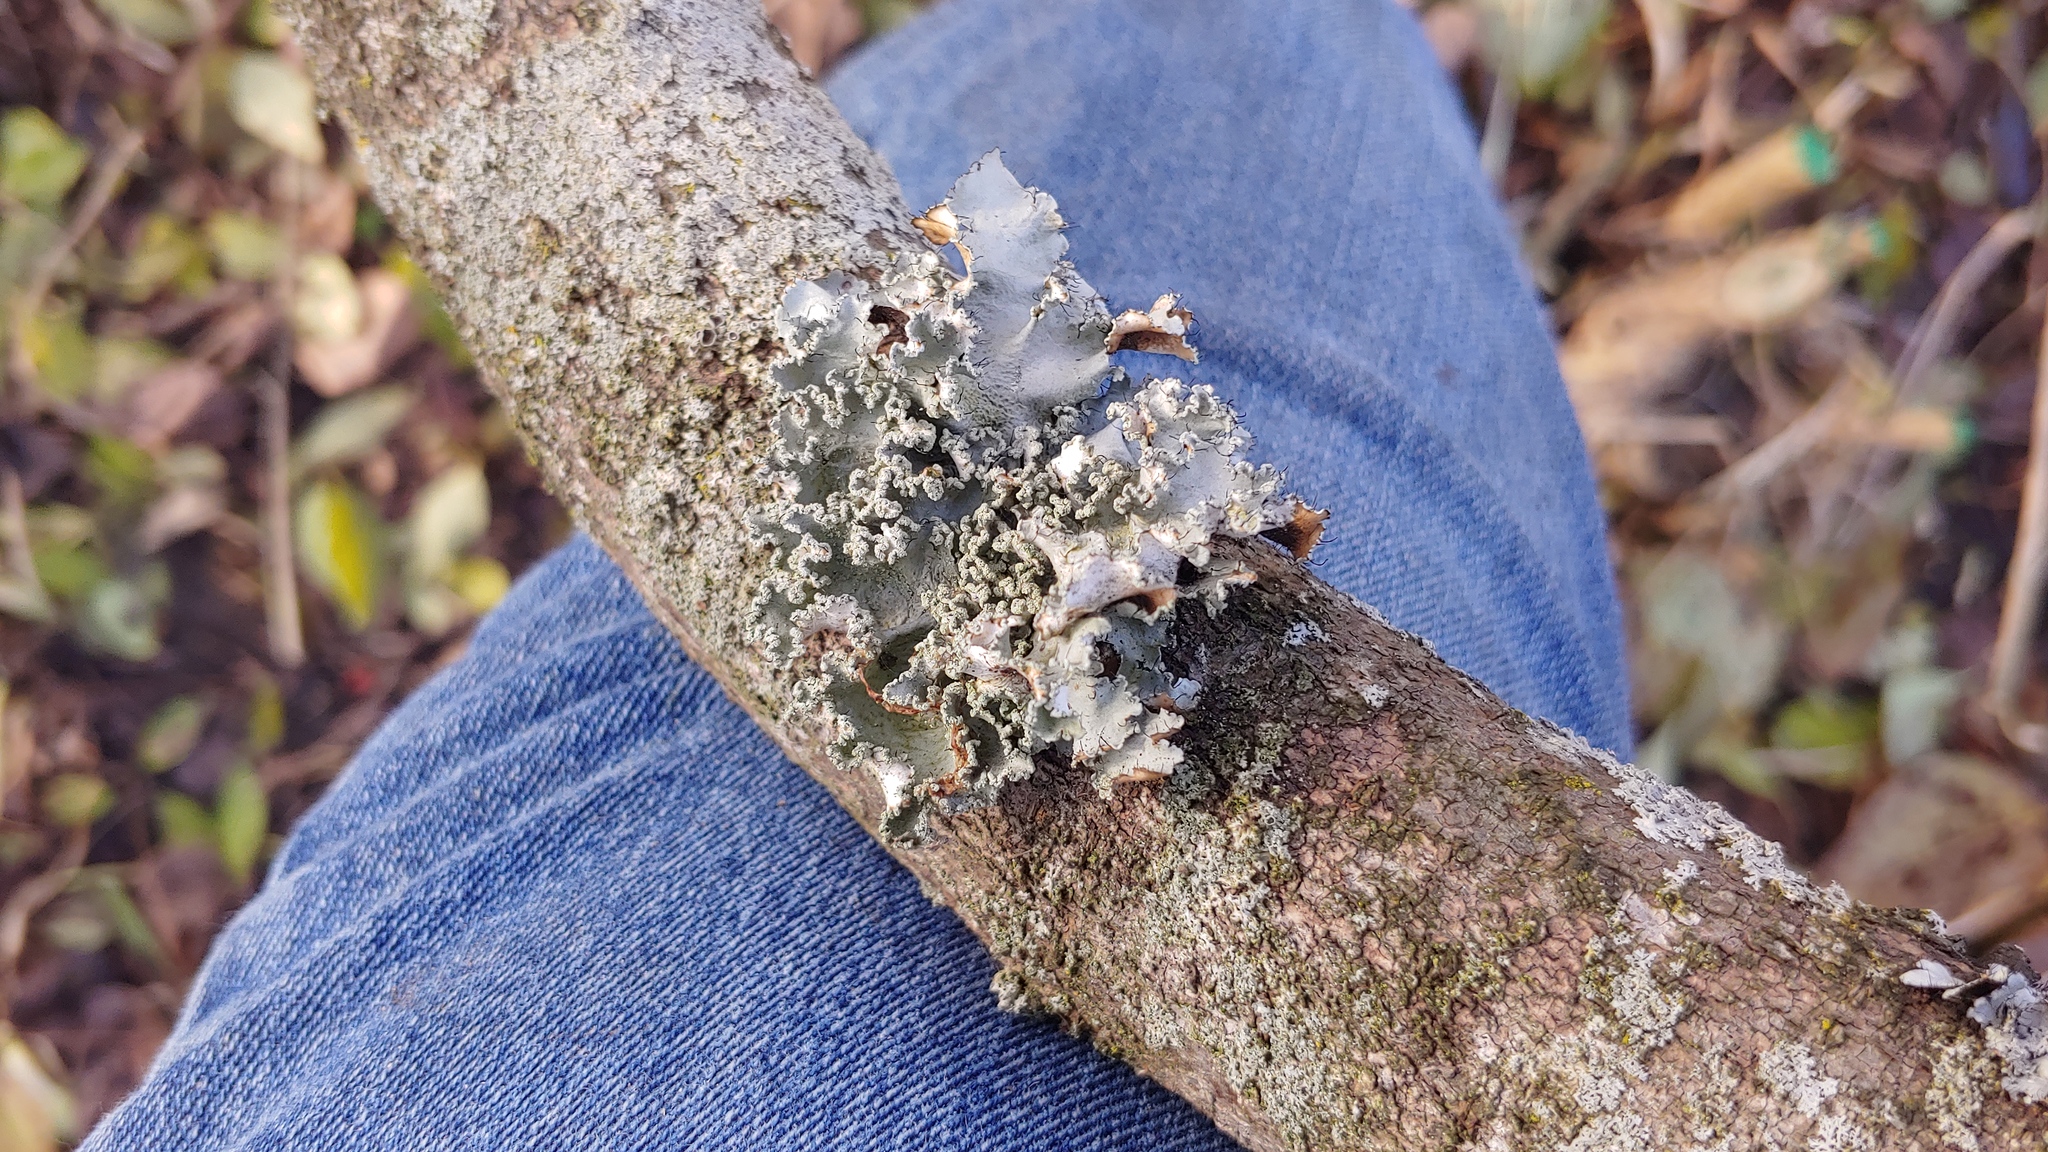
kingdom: Fungi
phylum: Ascomycota
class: Lecanoromycetes
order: Lecanorales
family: Parmeliaceae
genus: Parmotrema
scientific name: Parmotrema hypotropum
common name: Powdered ruffle lichen
